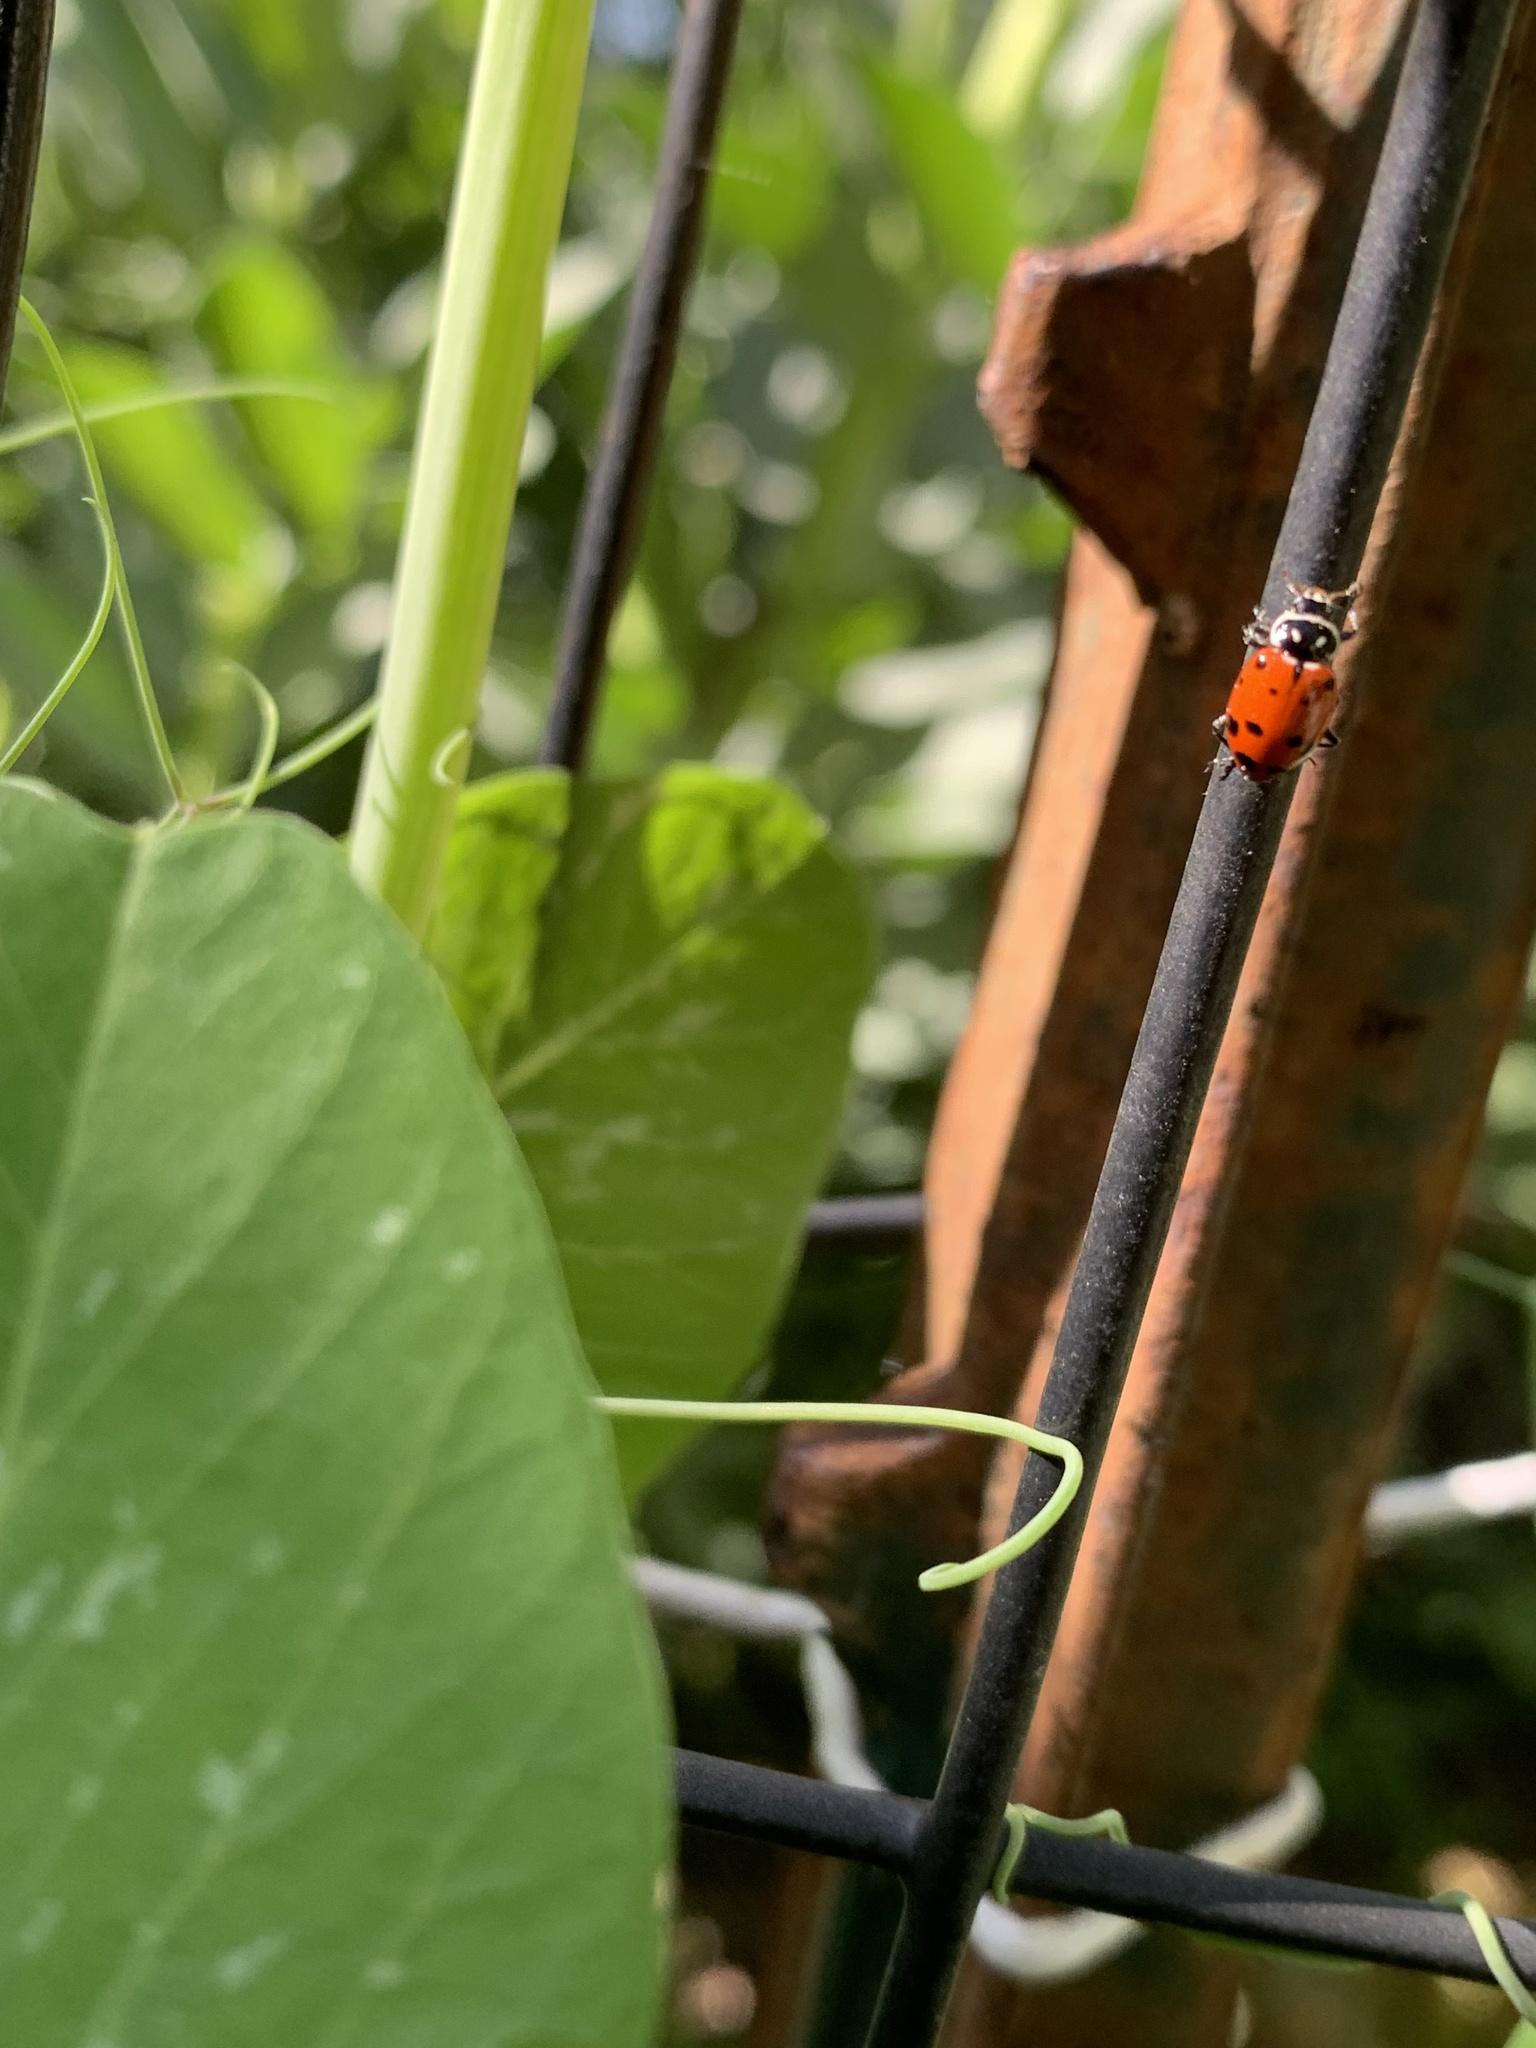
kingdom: Animalia
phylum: Arthropoda
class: Insecta
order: Coleoptera
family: Coccinellidae
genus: Hippodamia
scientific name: Hippodamia convergens
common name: Convergent lady beetle
